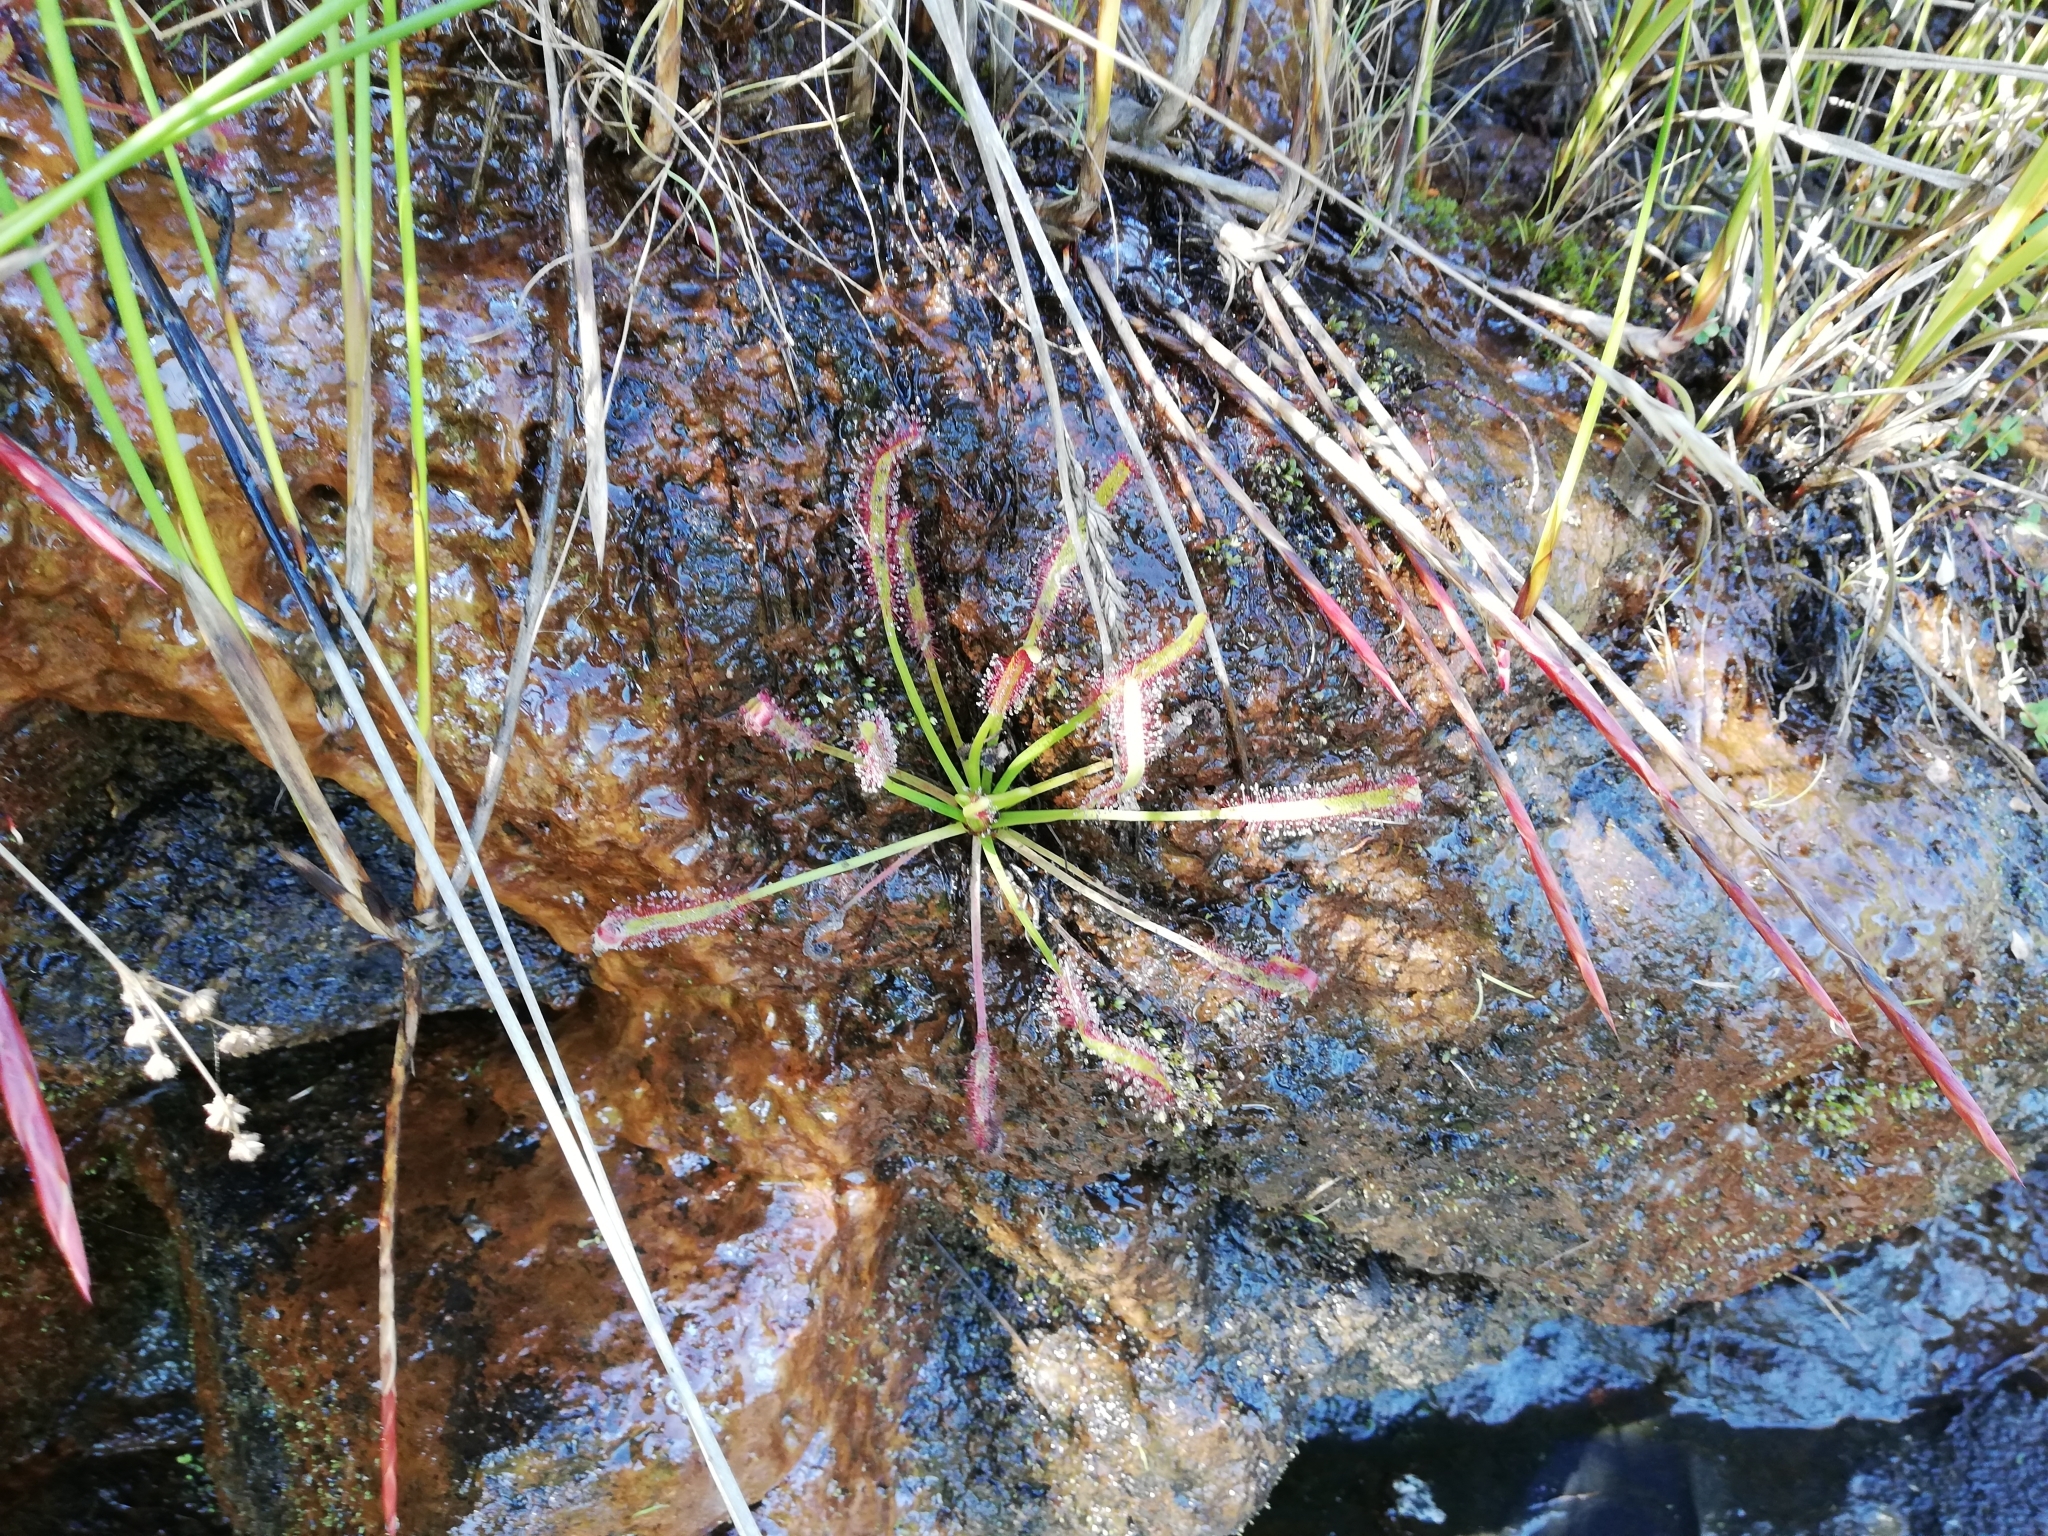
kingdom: Plantae
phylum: Tracheophyta
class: Magnoliopsida
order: Caryophyllales
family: Droseraceae
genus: Drosera
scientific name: Drosera capensis
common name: Cape sundew
